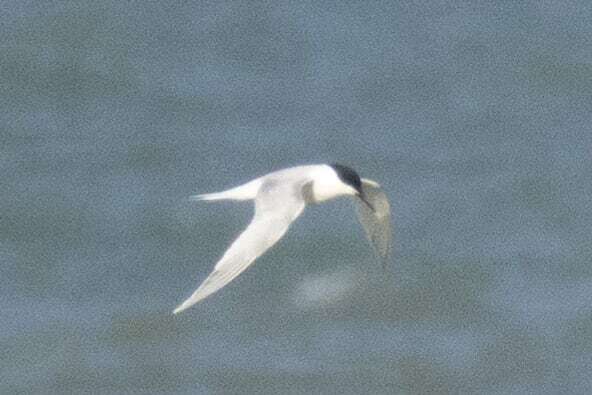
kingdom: Animalia
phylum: Chordata
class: Aves
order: Charadriiformes
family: Laridae
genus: Thalasseus
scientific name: Thalasseus sandvicensis
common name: Sandwich tern
